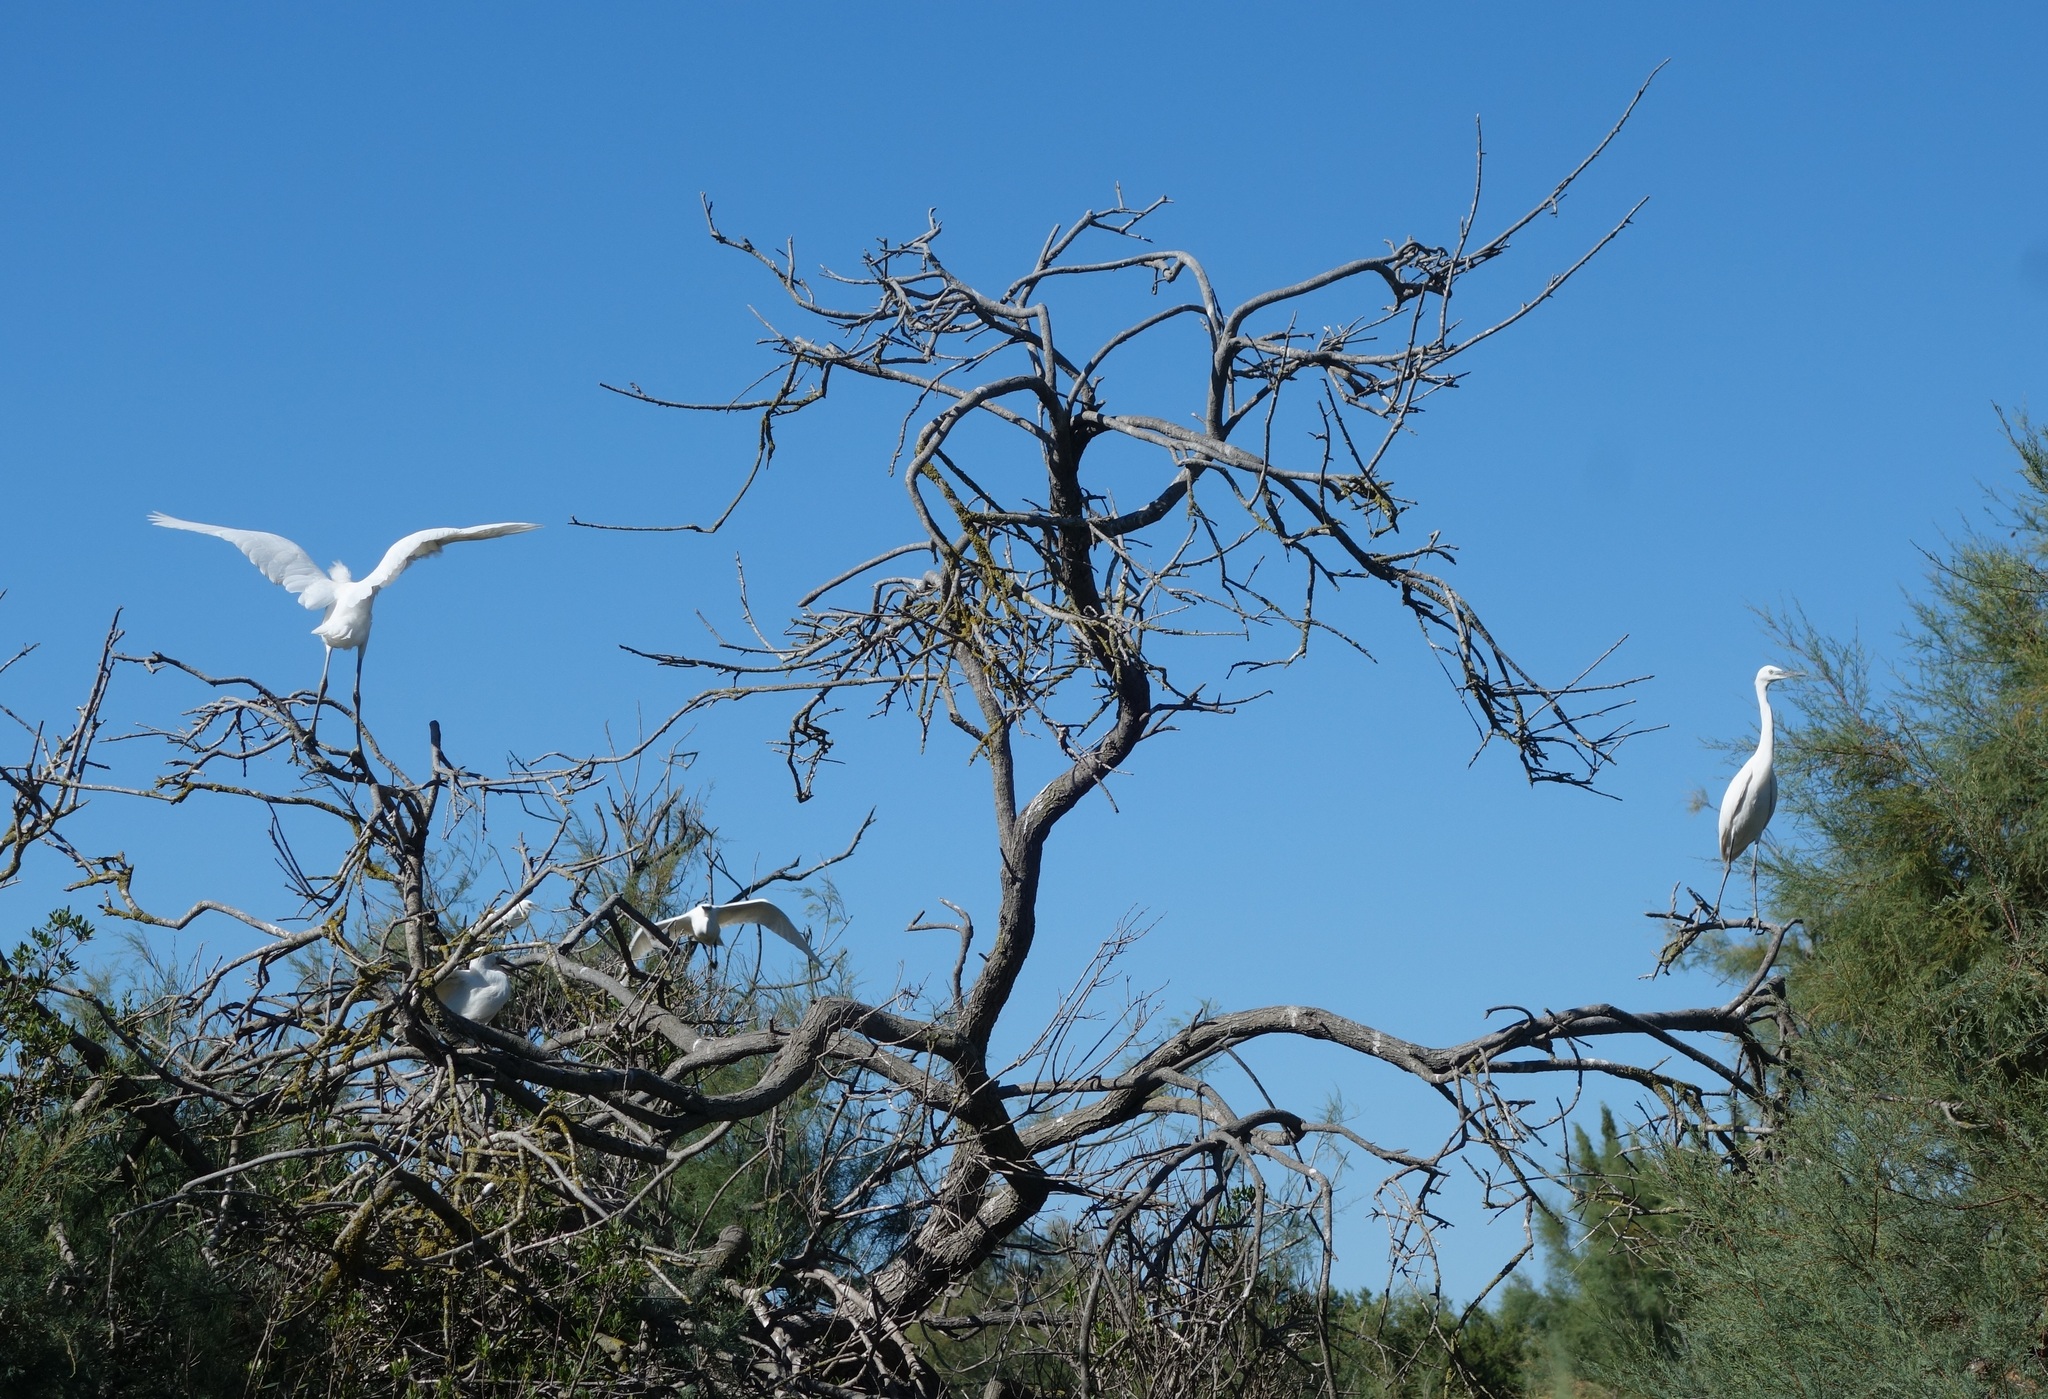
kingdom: Animalia
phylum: Chordata
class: Aves
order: Pelecaniformes
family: Ardeidae
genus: Ardea
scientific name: Ardea alba
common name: Great egret
